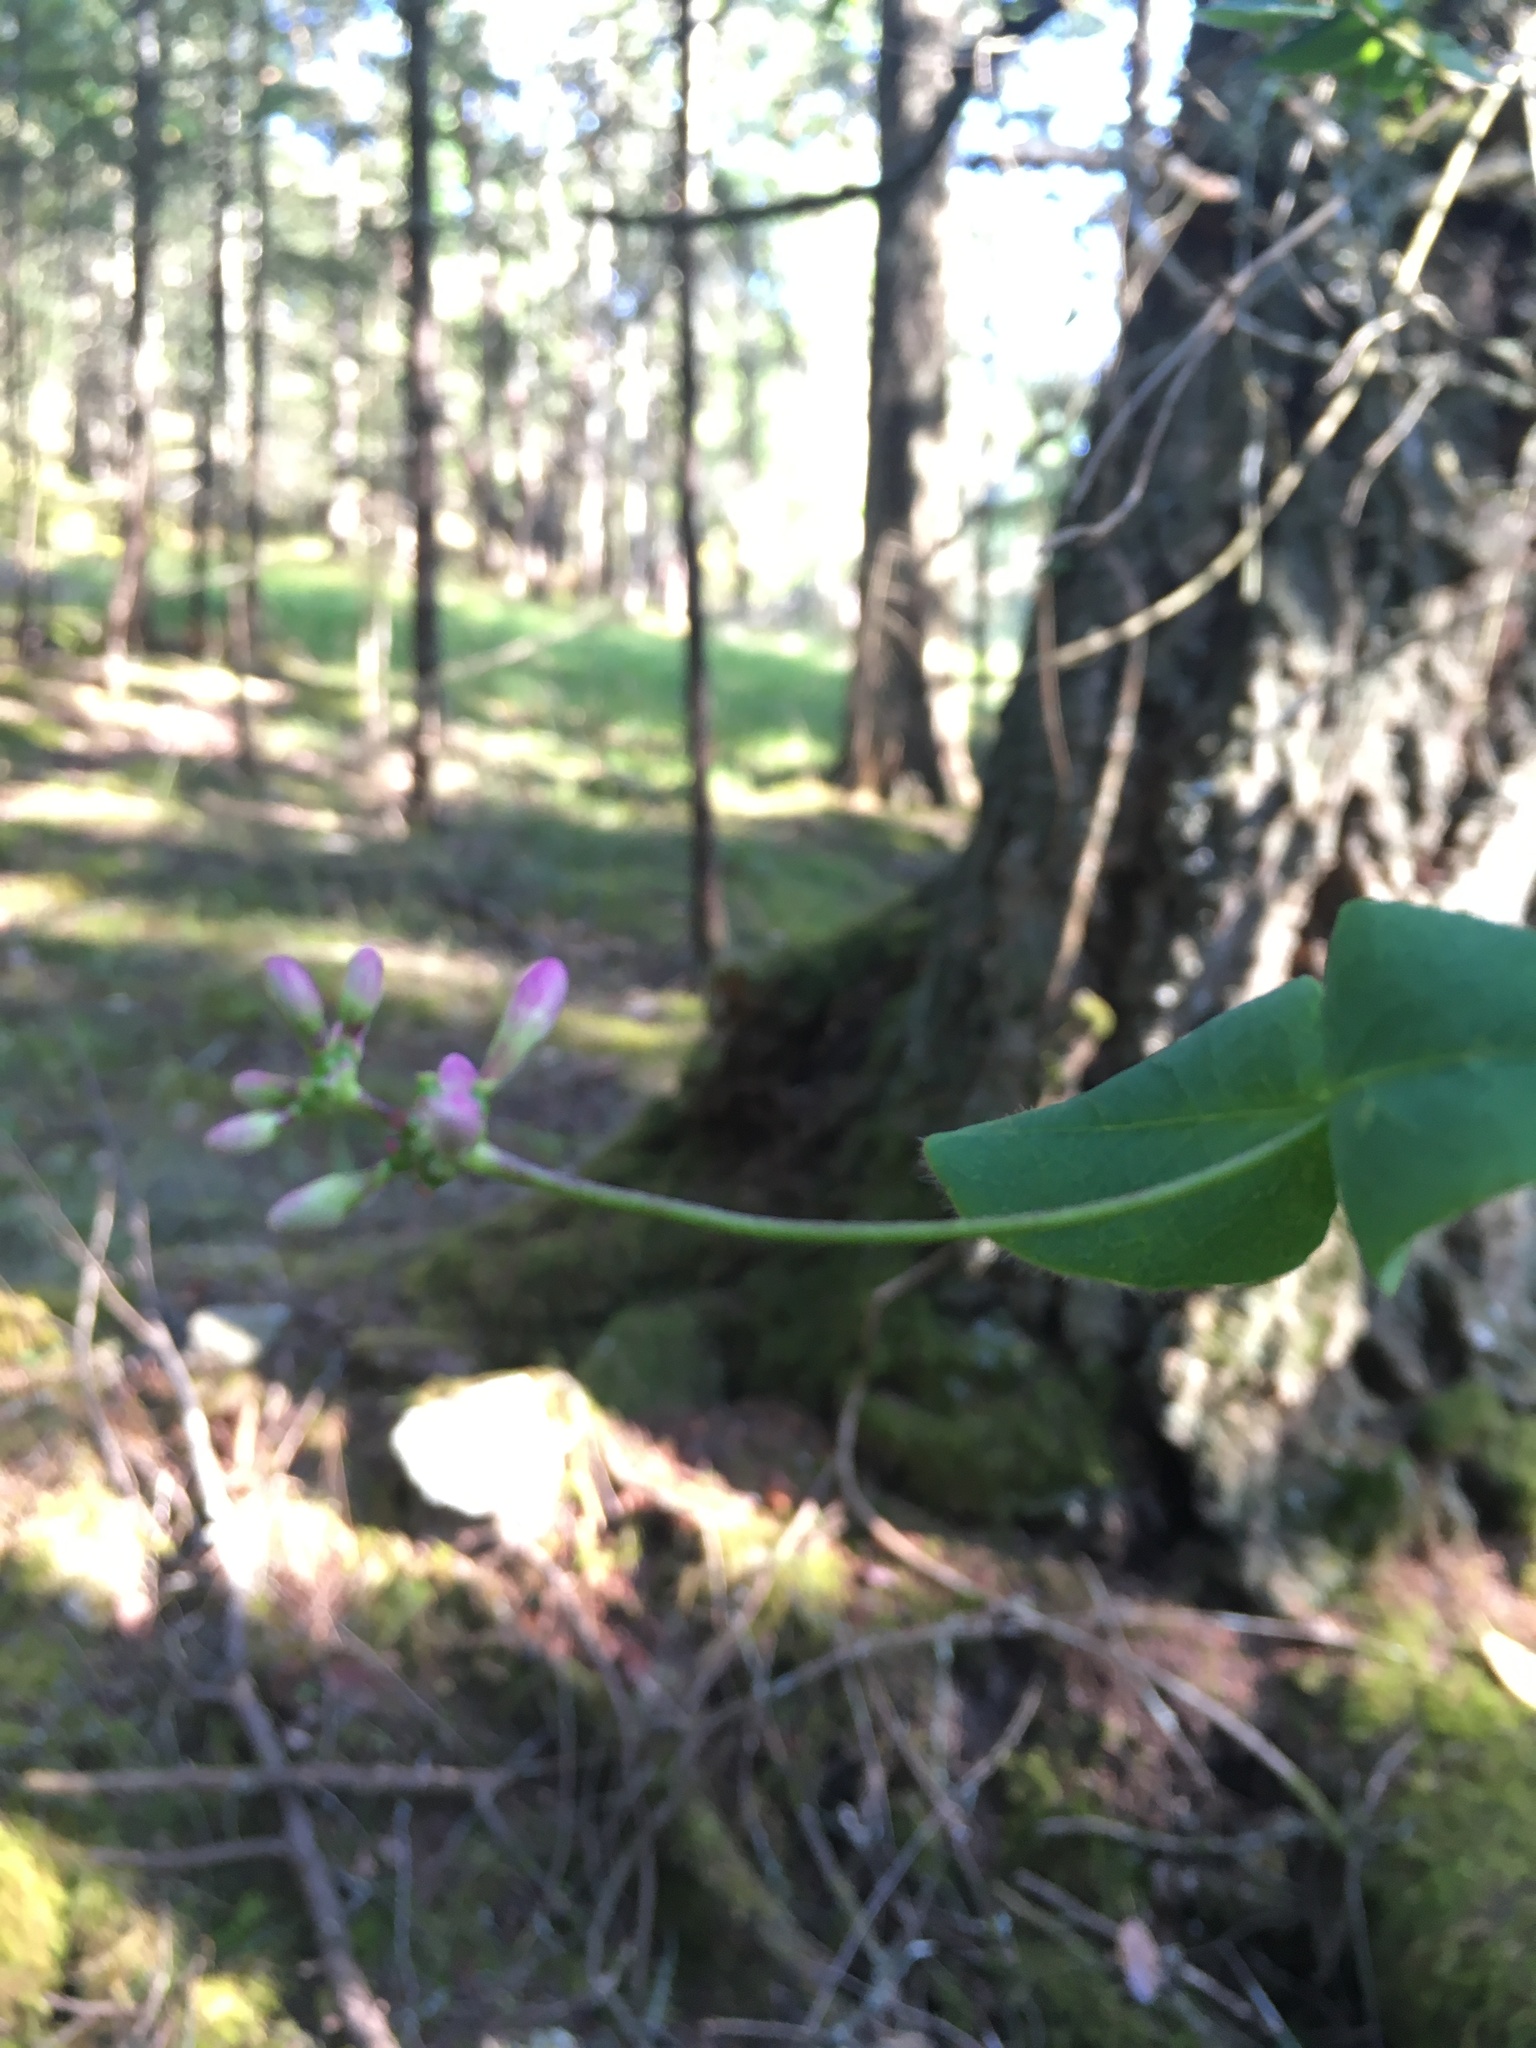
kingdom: Plantae
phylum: Tracheophyta
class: Magnoliopsida
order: Dipsacales
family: Caprifoliaceae
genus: Lonicera
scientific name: Lonicera hispidula
